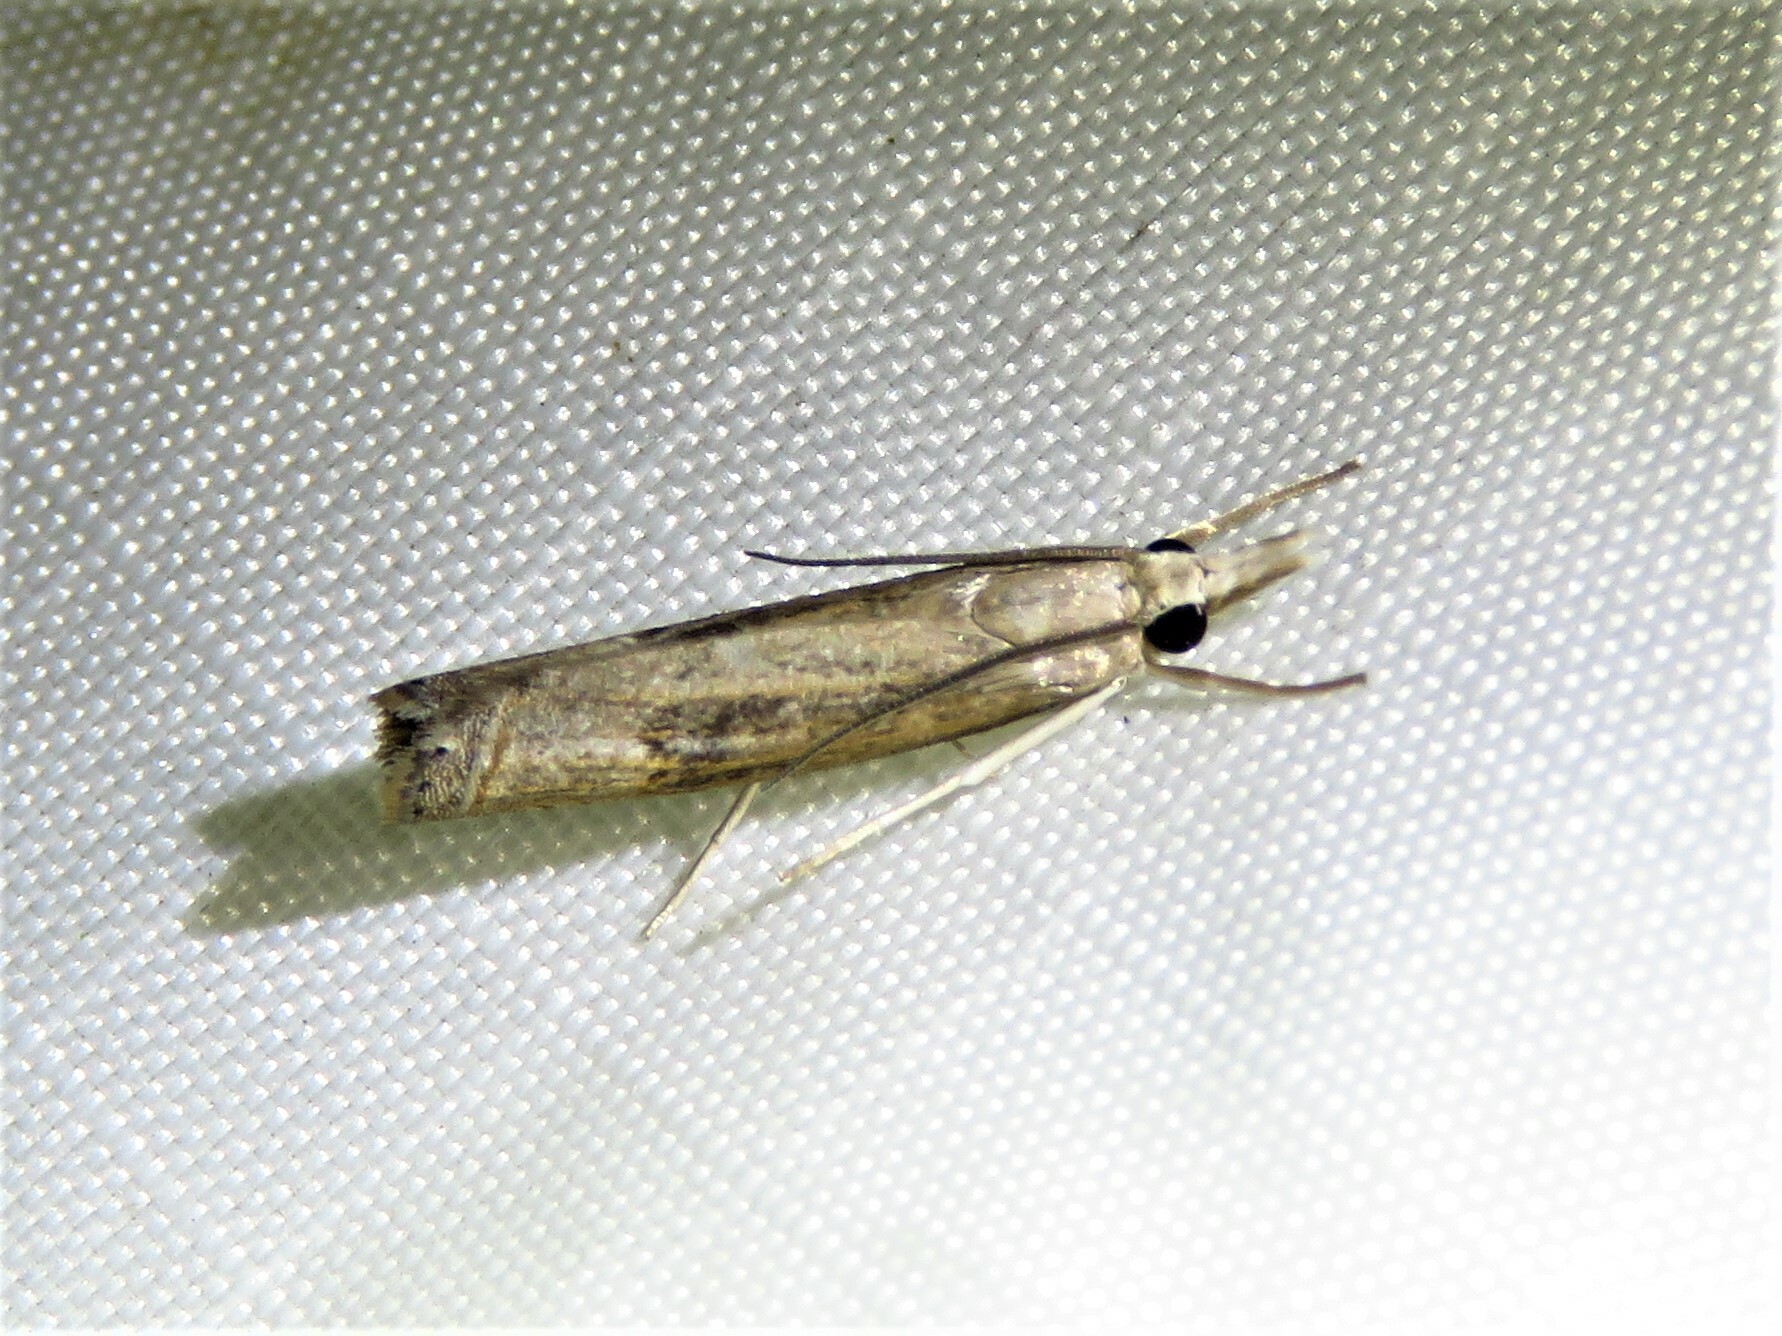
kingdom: Animalia
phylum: Arthropoda
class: Insecta
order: Lepidoptera
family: Crambidae
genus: Parapediasia
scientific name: Parapediasia teterellus
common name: Bluegrass webworm moth
